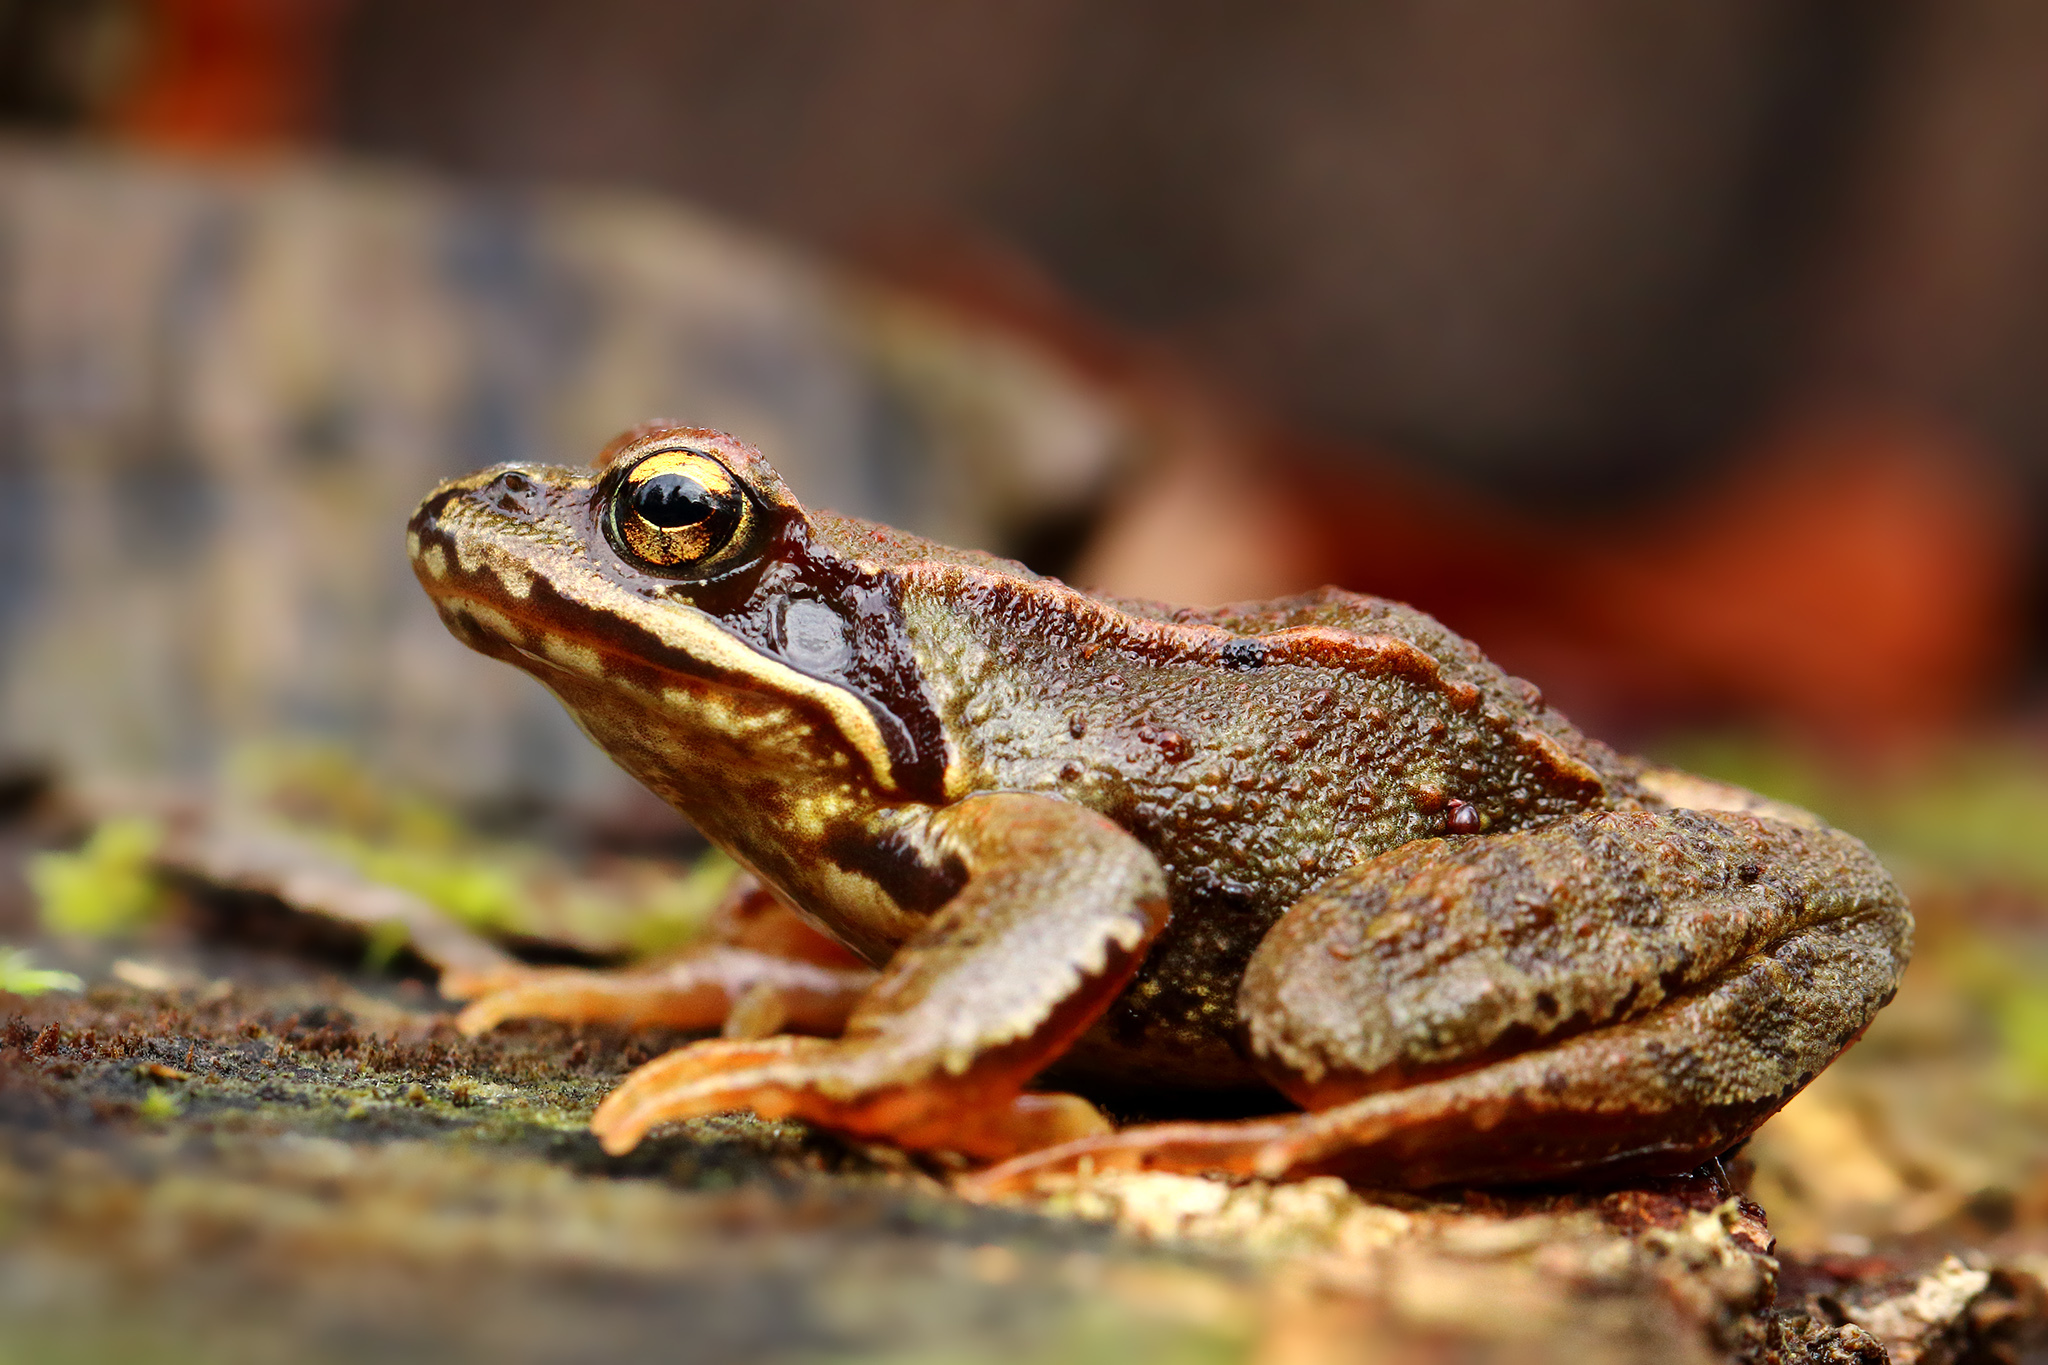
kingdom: Animalia
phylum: Chordata
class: Amphibia
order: Anura
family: Ranidae
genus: Rana
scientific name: Rana temporaria
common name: Common frog
